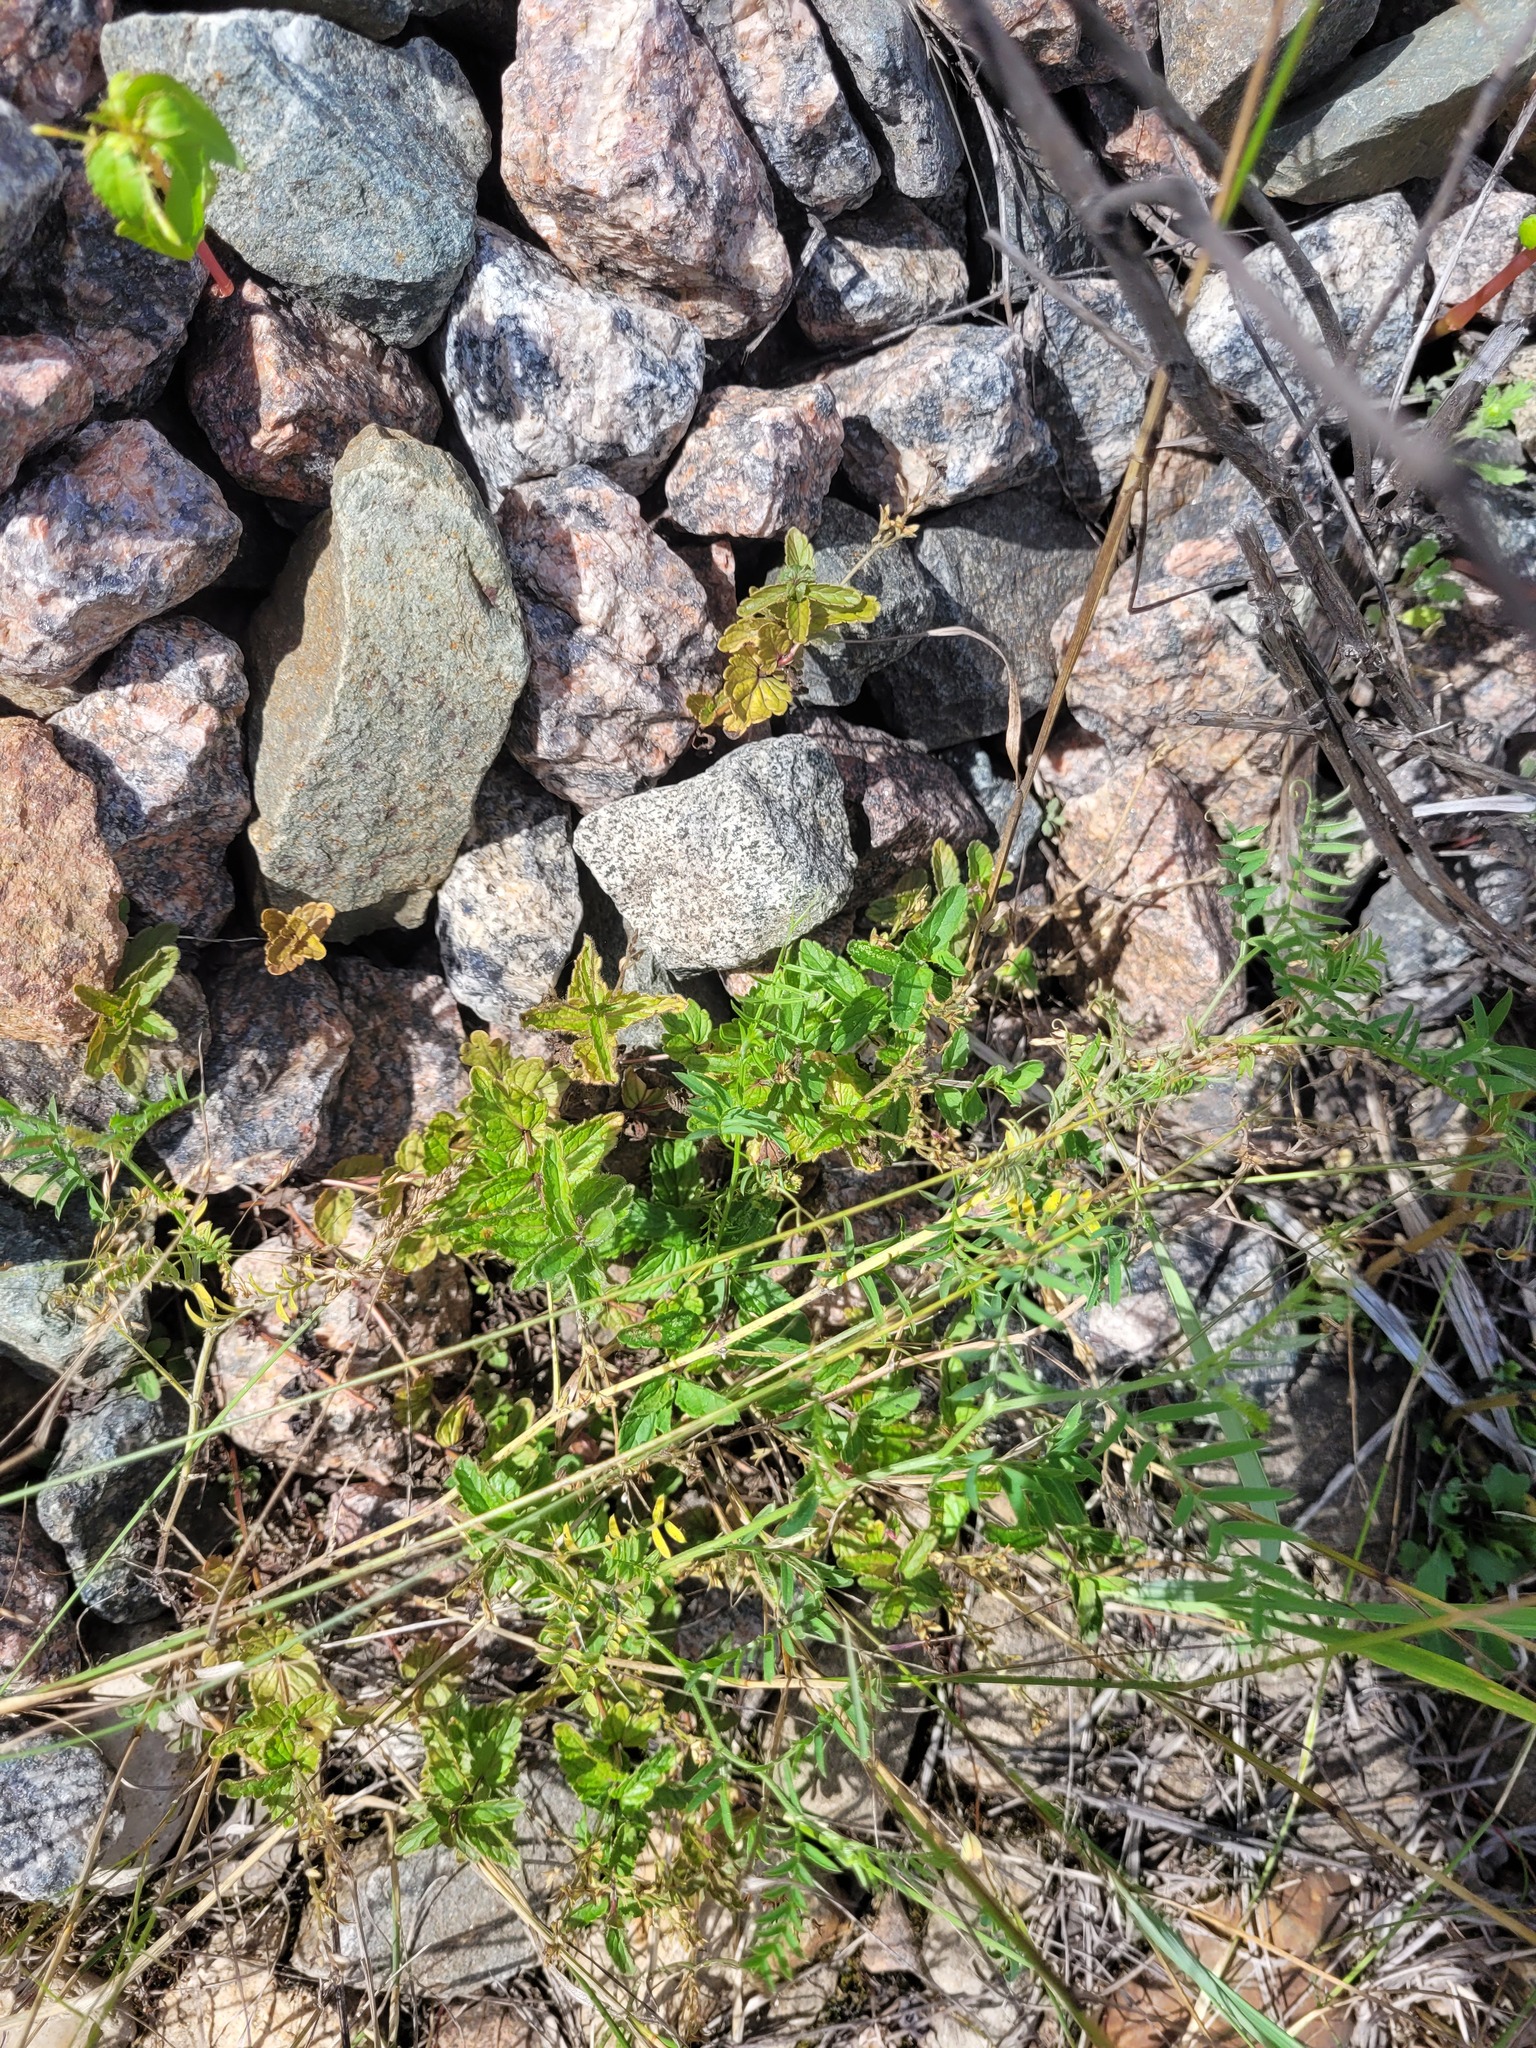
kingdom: Plantae
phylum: Tracheophyta
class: Magnoliopsida
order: Lamiales
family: Plantaginaceae
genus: Veronica
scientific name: Veronica chamaedrys
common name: Germander speedwell
